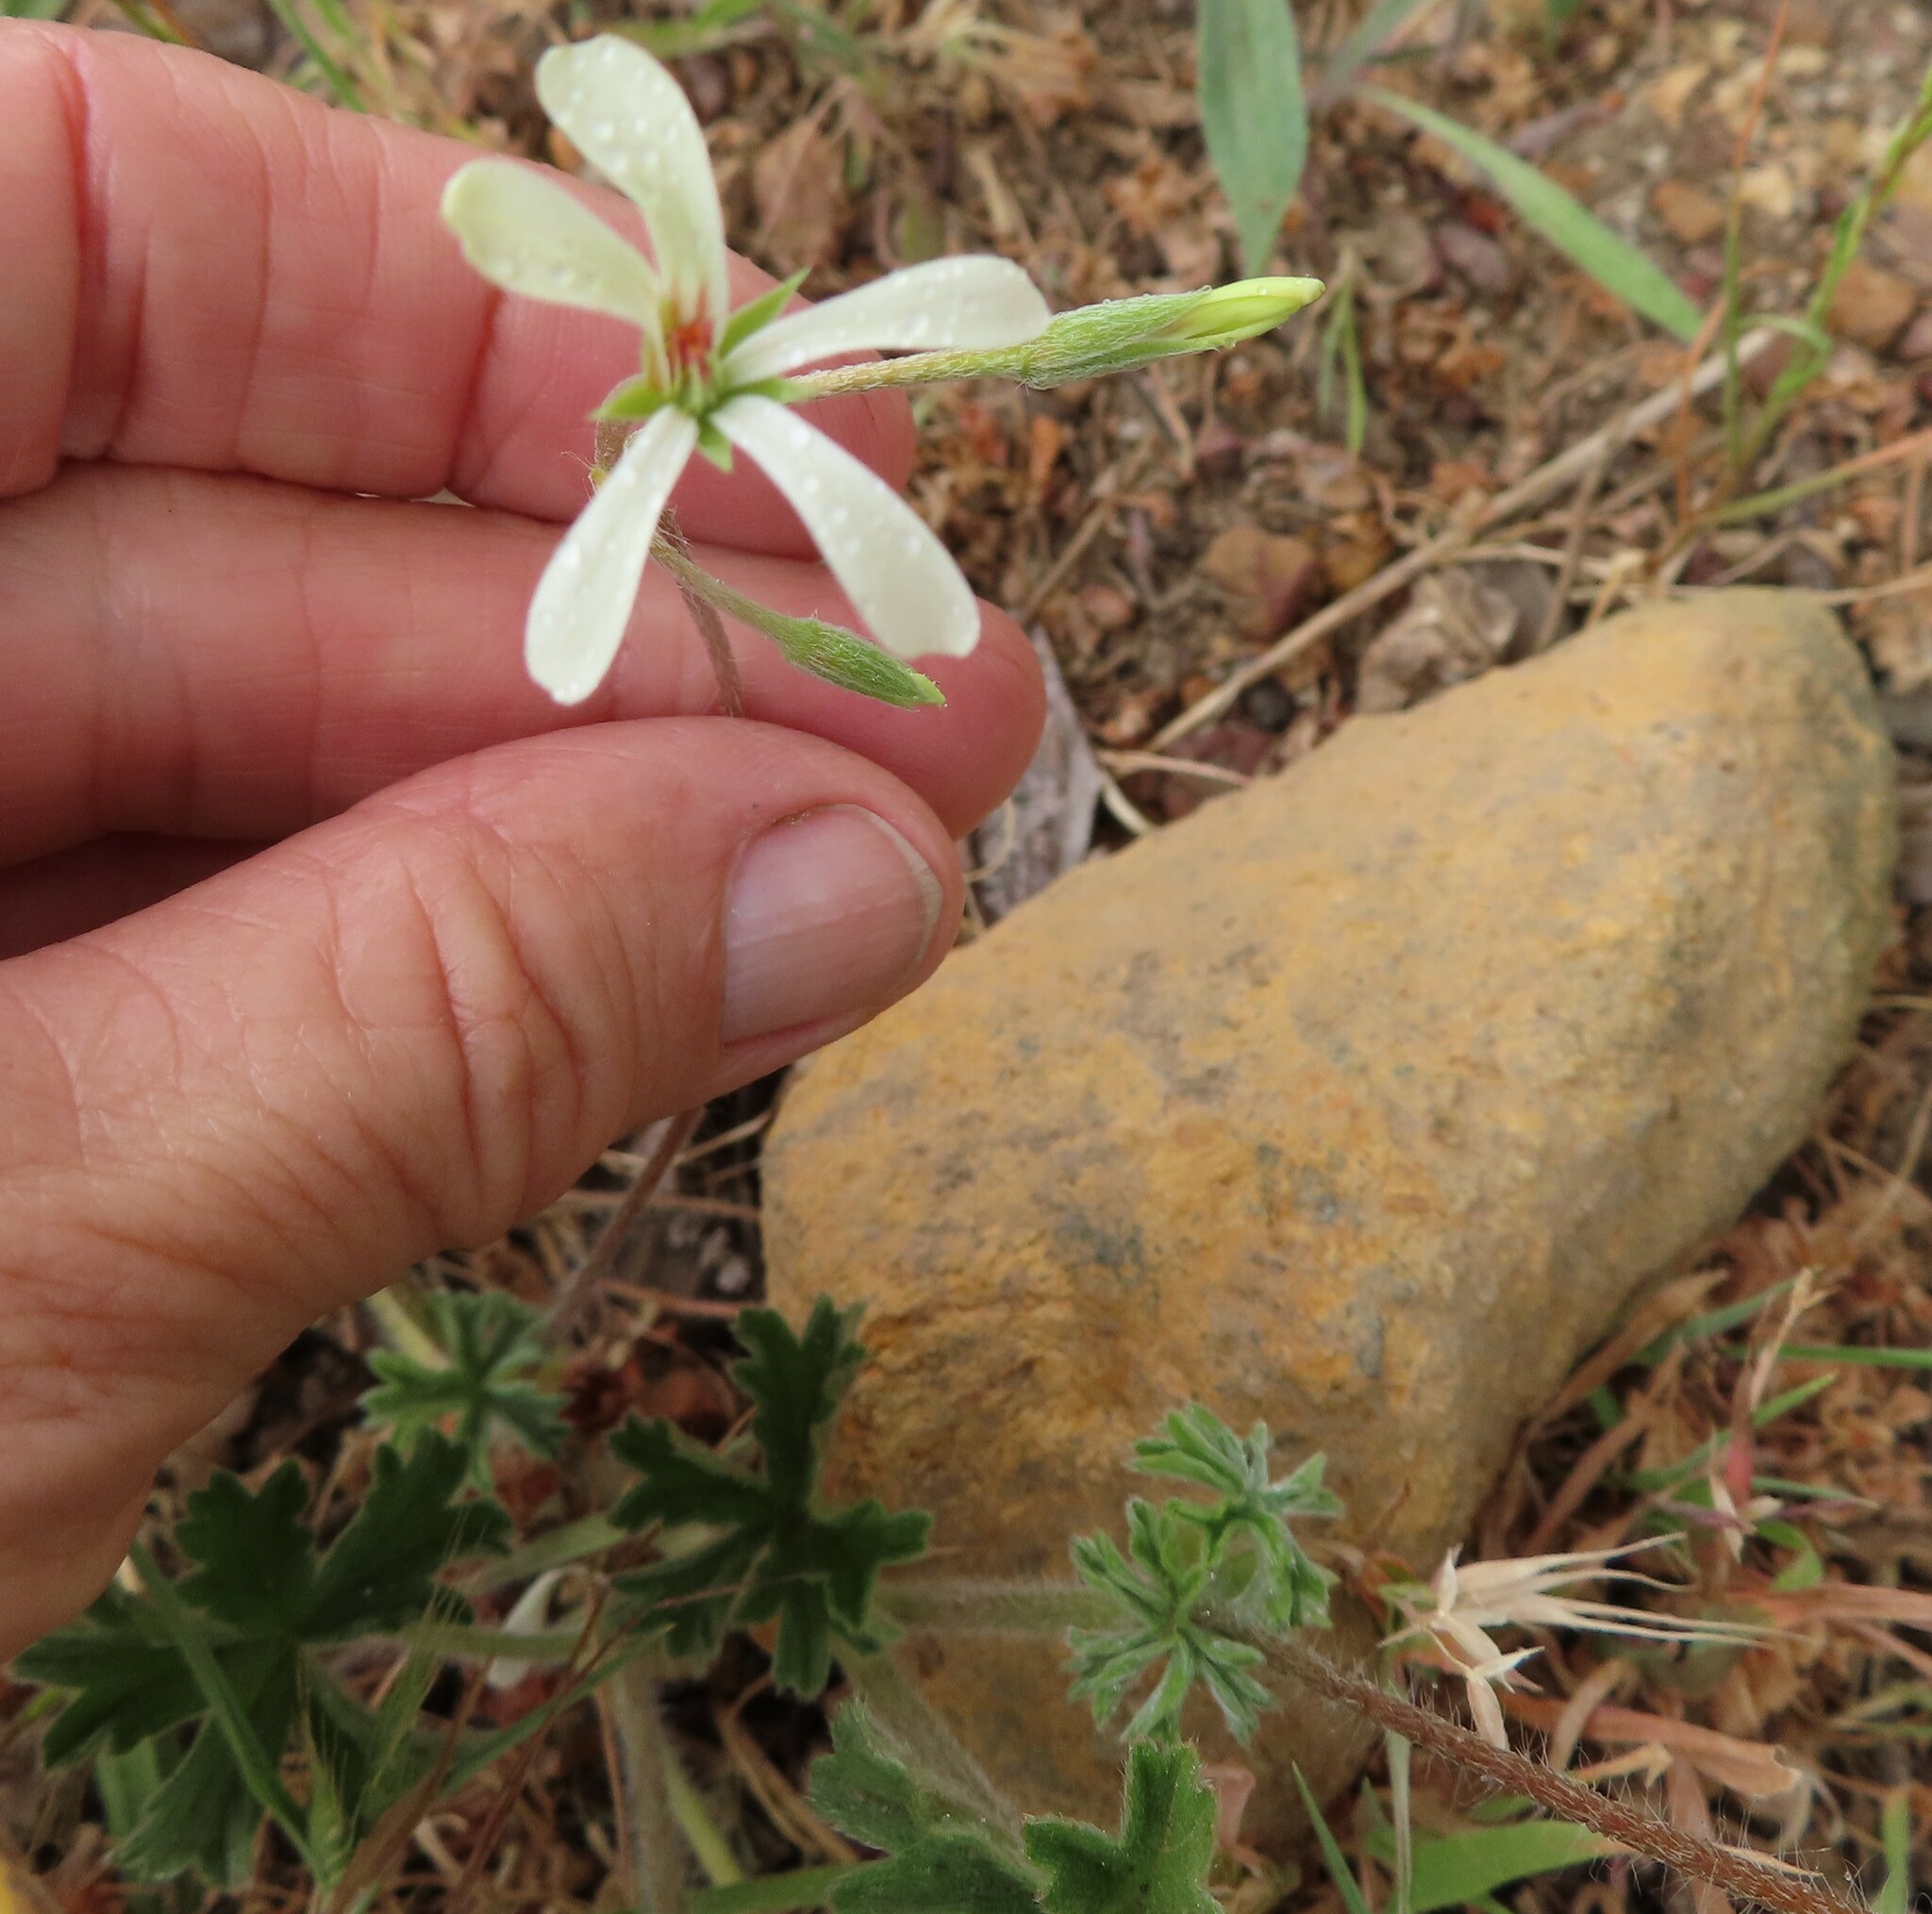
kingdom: Plantae
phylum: Tracheophyta
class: Magnoliopsida
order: Geraniales
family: Geraniaceae
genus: Pelargonium
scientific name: Pelargonium alchemilloides
